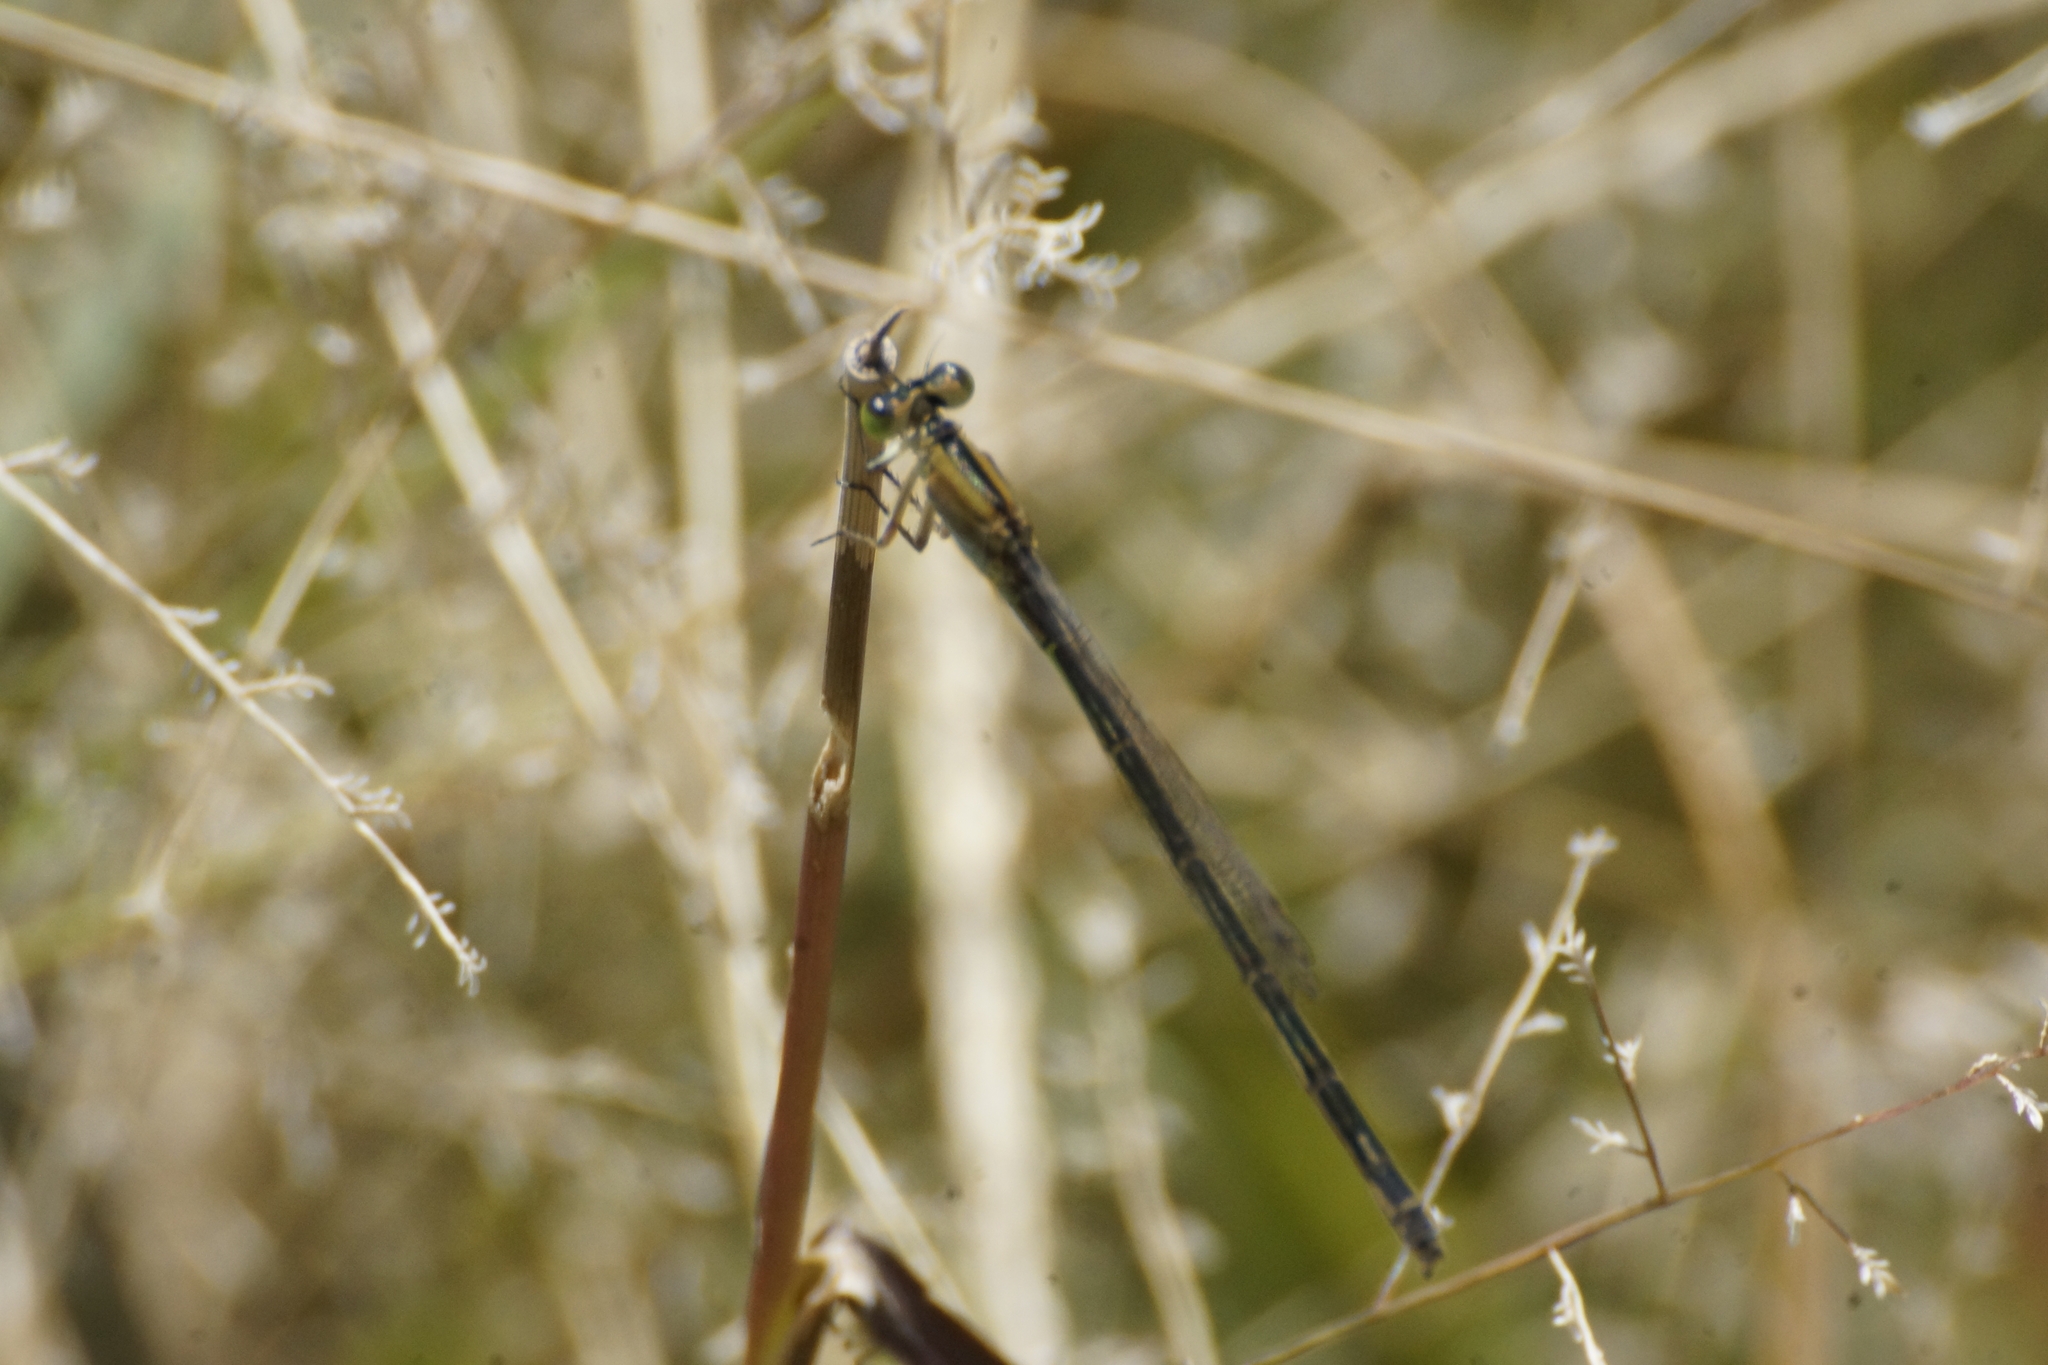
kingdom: Animalia
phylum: Arthropoda
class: Insecta
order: Odonata
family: Coenagrionidae
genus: Ischnura
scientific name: Ischnura pruinescens
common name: Colourful bluetail
